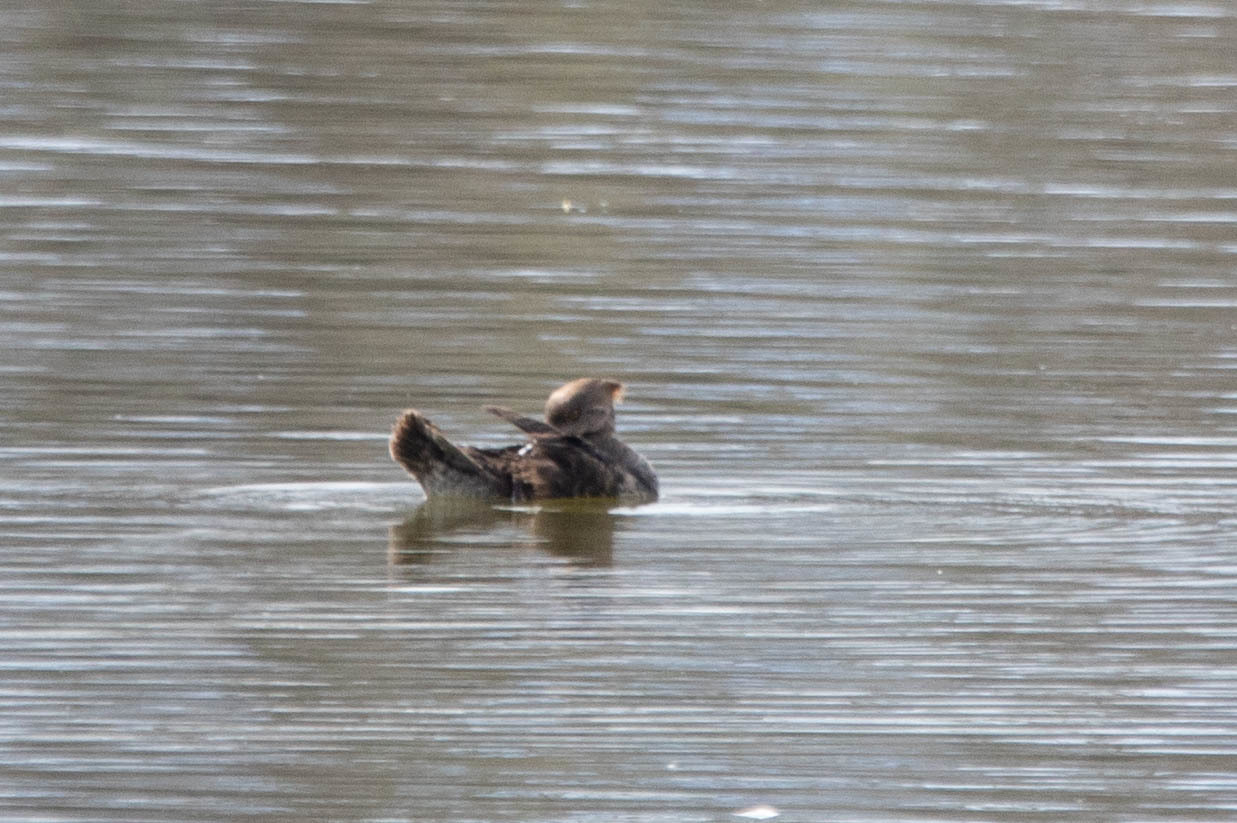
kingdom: Animalia
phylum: Chordata
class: Aves
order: Anseriformes
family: Anatidae
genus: Lophodytes
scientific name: Lophodytes cucullatus
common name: Hooded merganser
